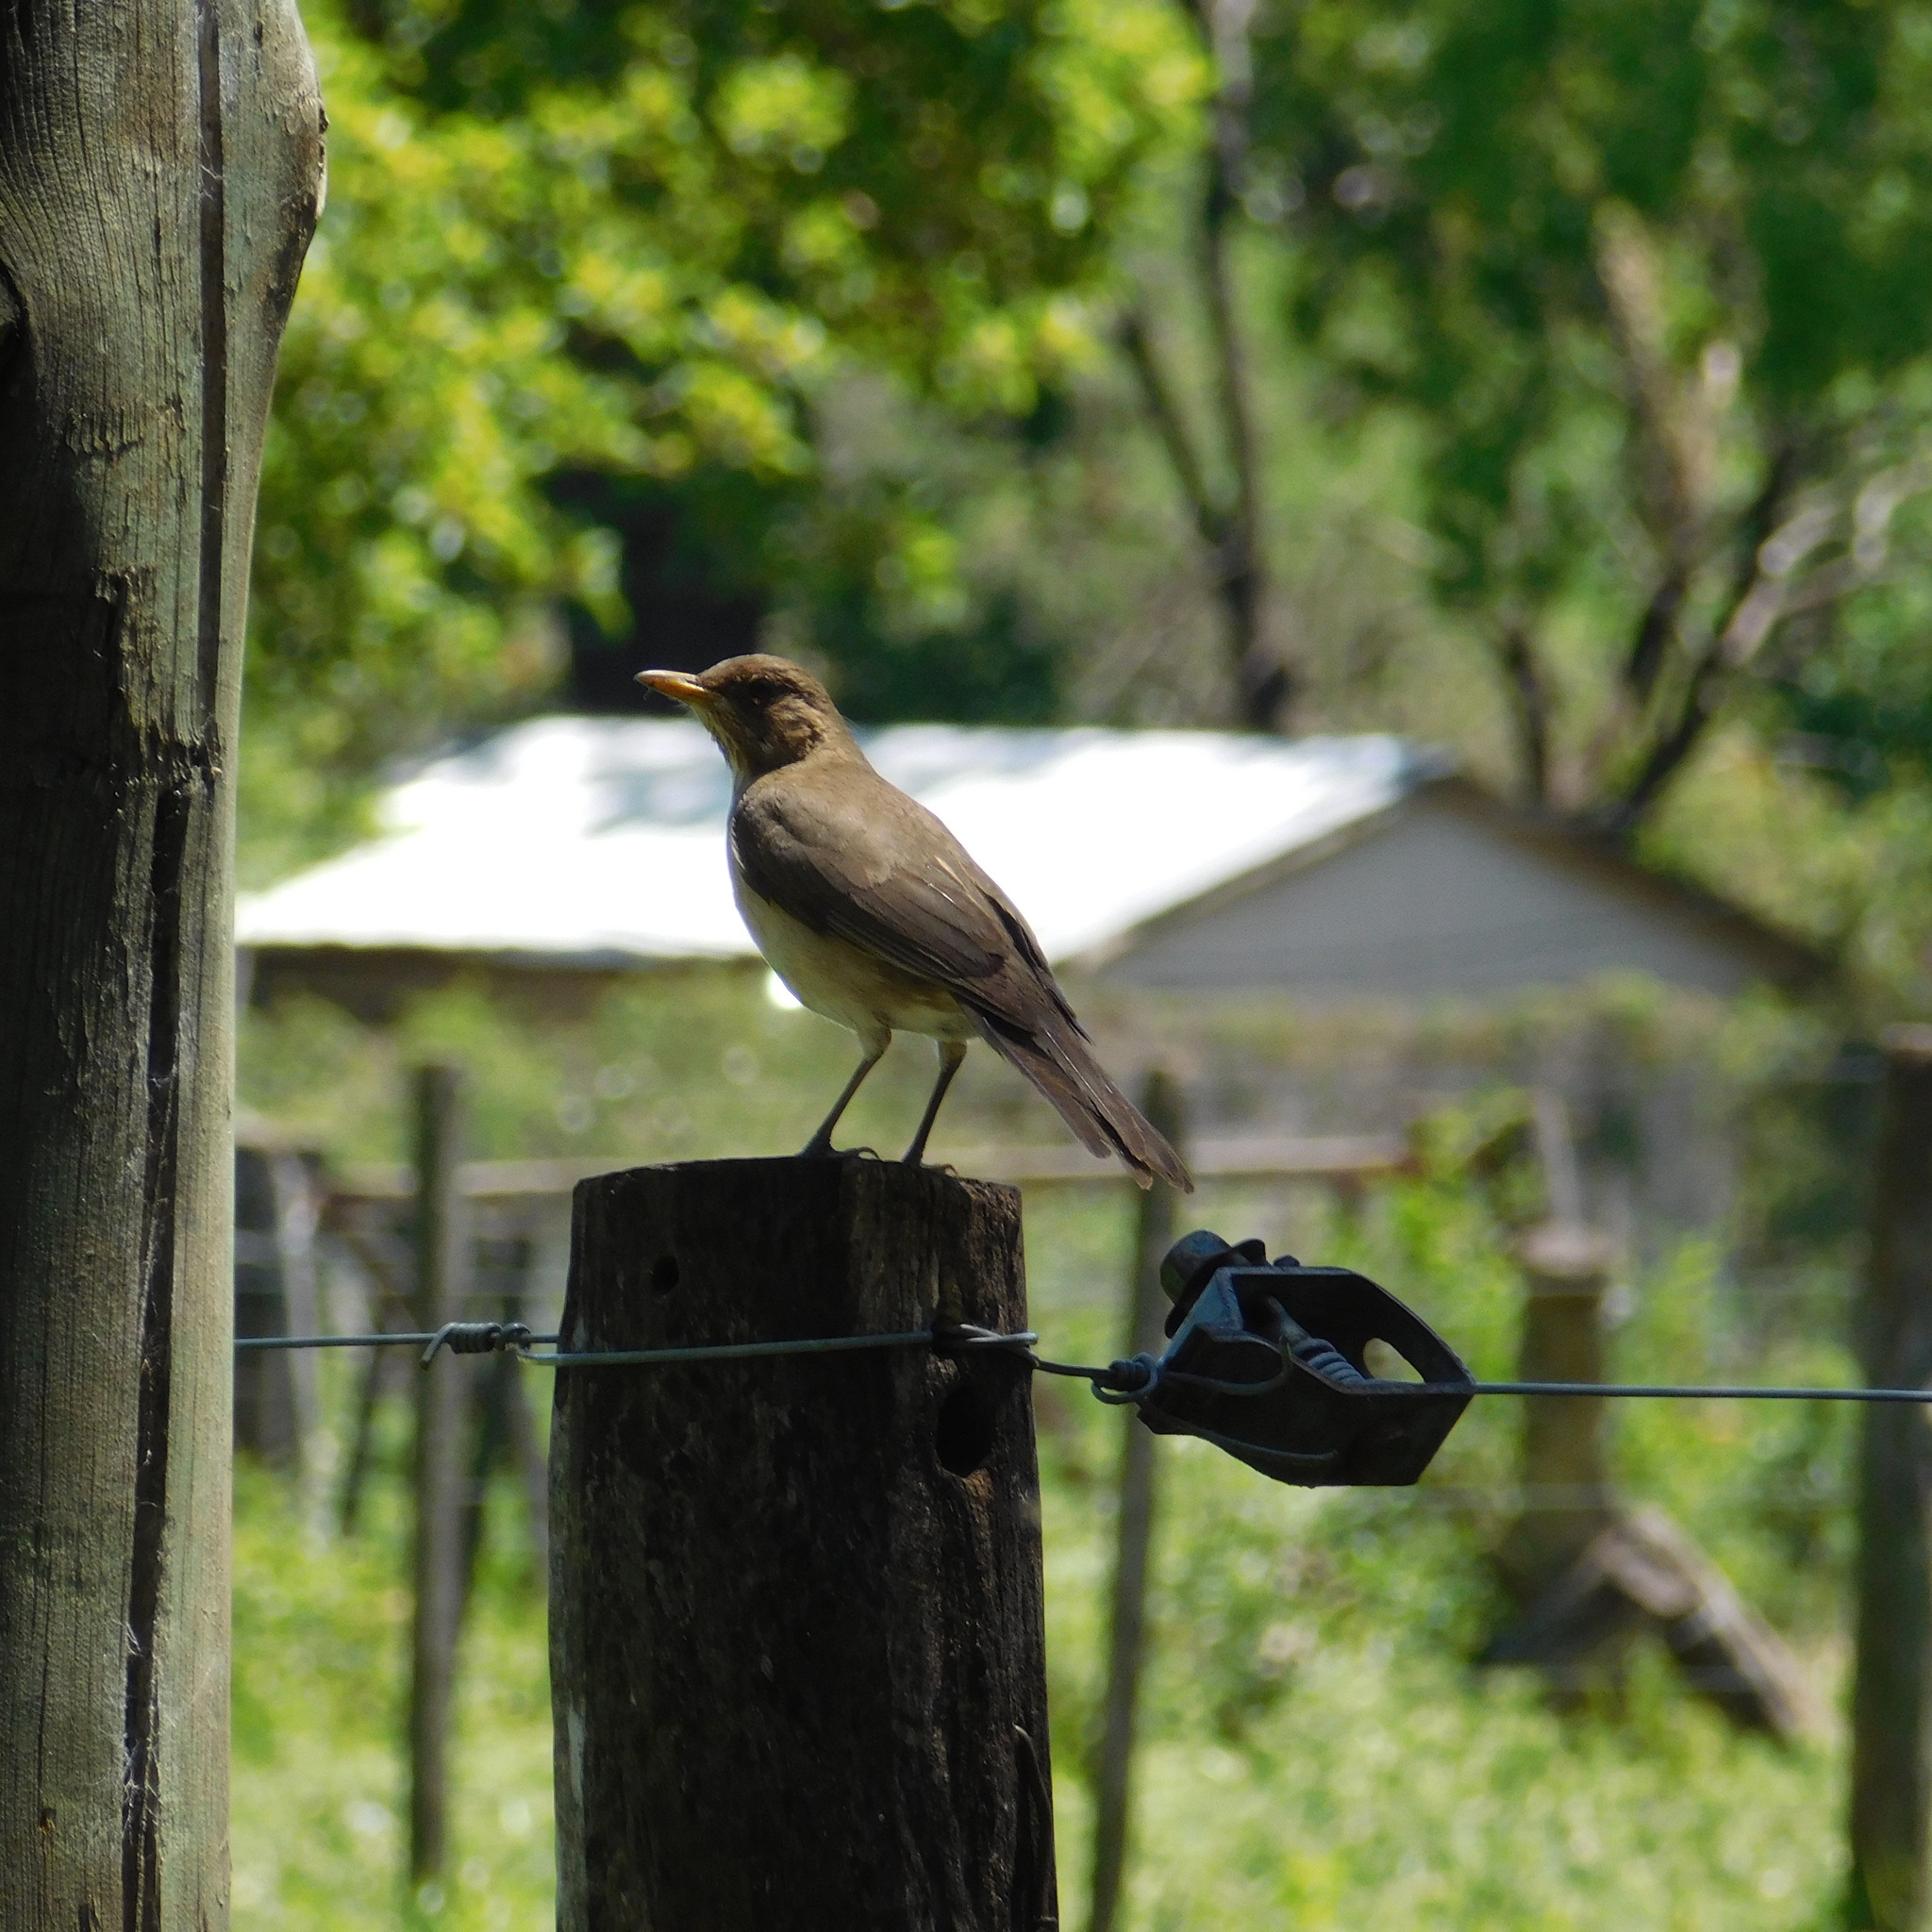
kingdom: Animalia
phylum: Chordata
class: Aves
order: Passeriformes
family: Turdidae
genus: Turdus
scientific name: Turdus amaurochalinus
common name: Creamy-bellied thrush
